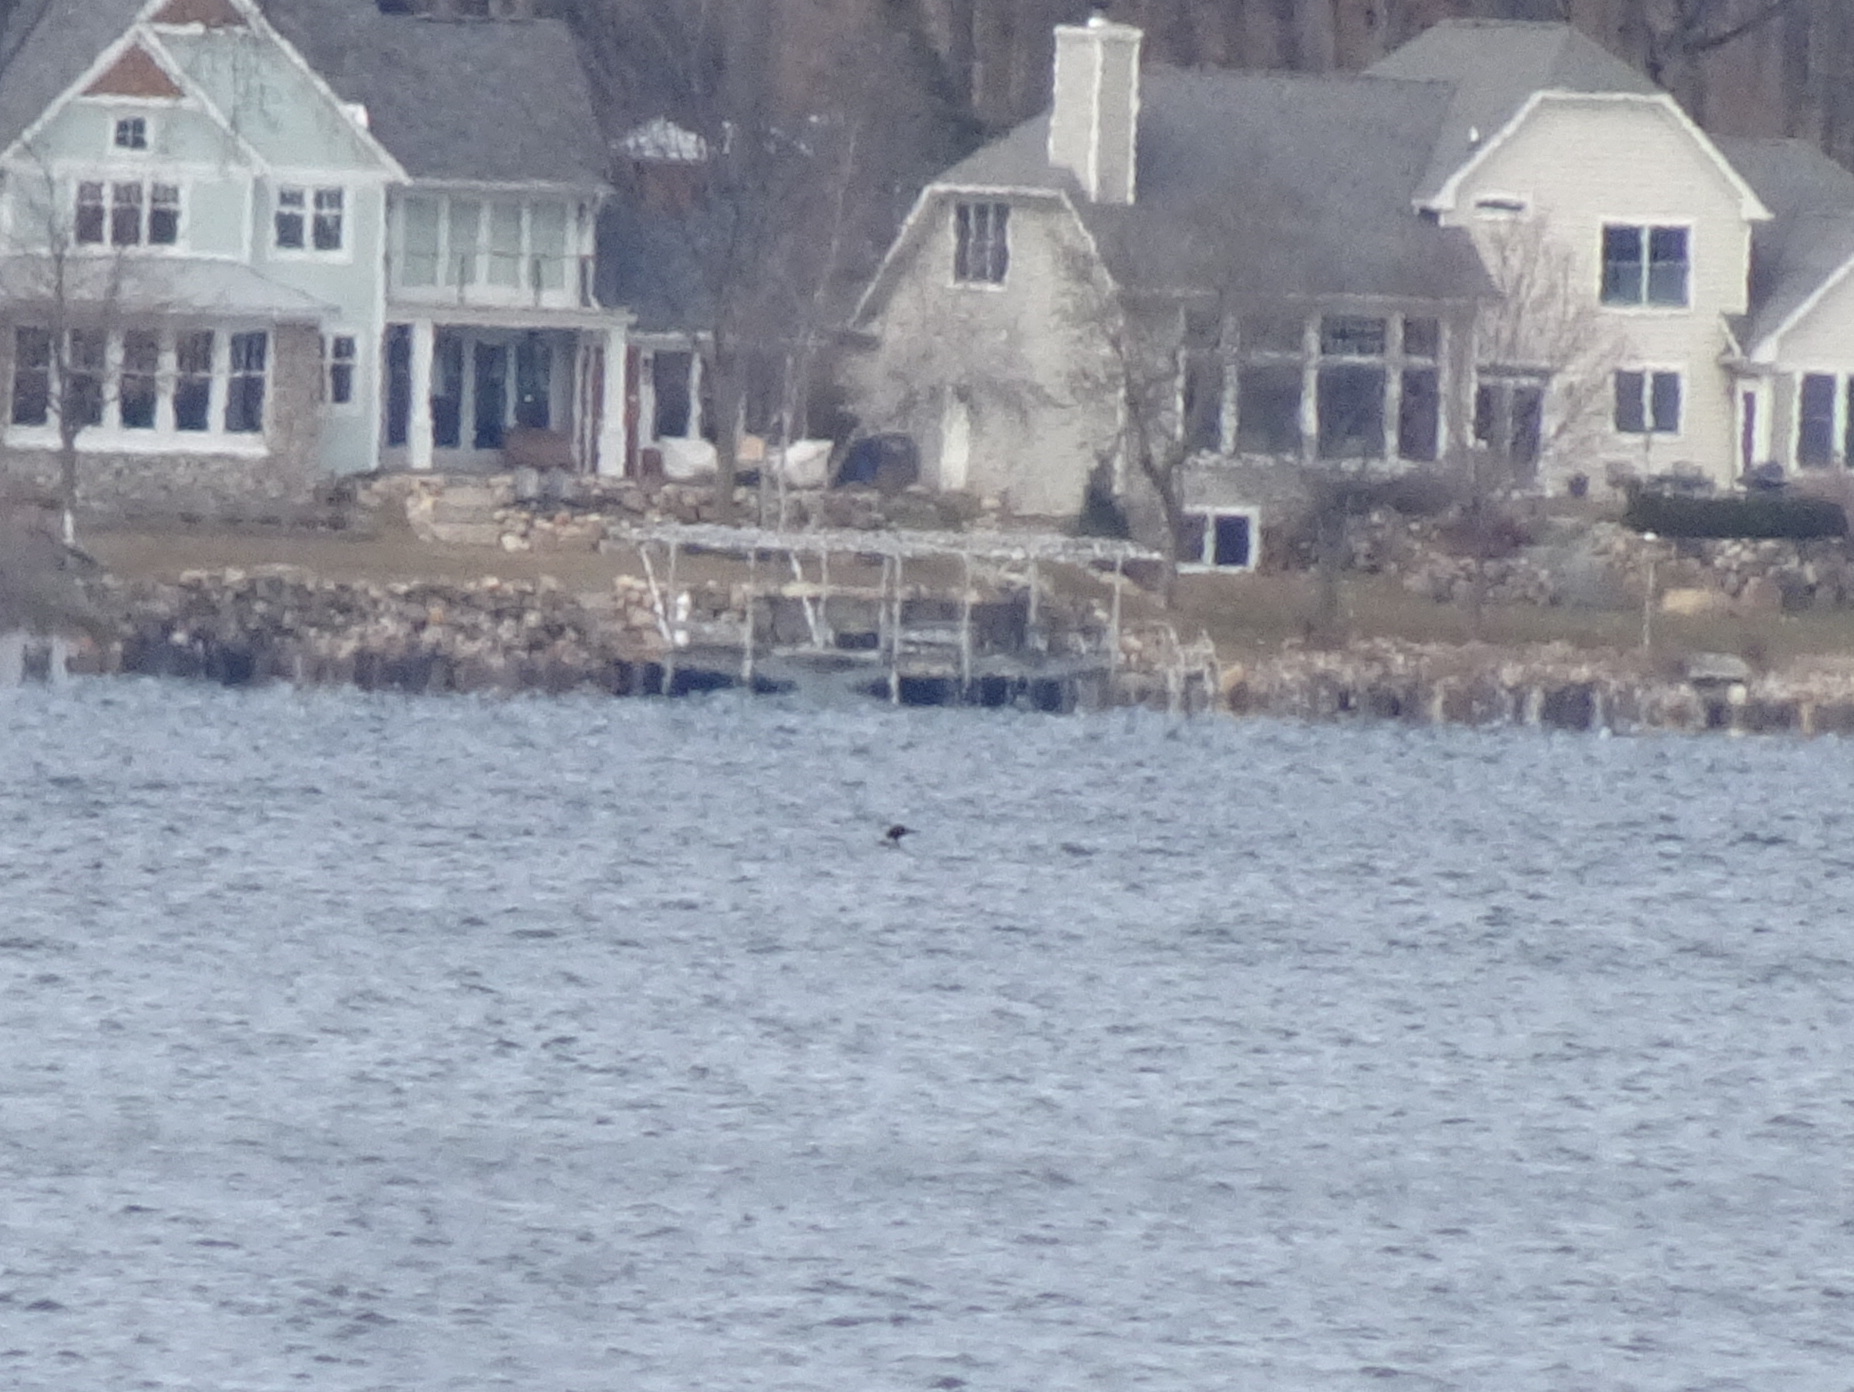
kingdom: Animalia
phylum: Chordata
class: Aves
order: Gaviiformes
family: Gaviidae
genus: Gavia
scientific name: Gavia immer
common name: Common loon
